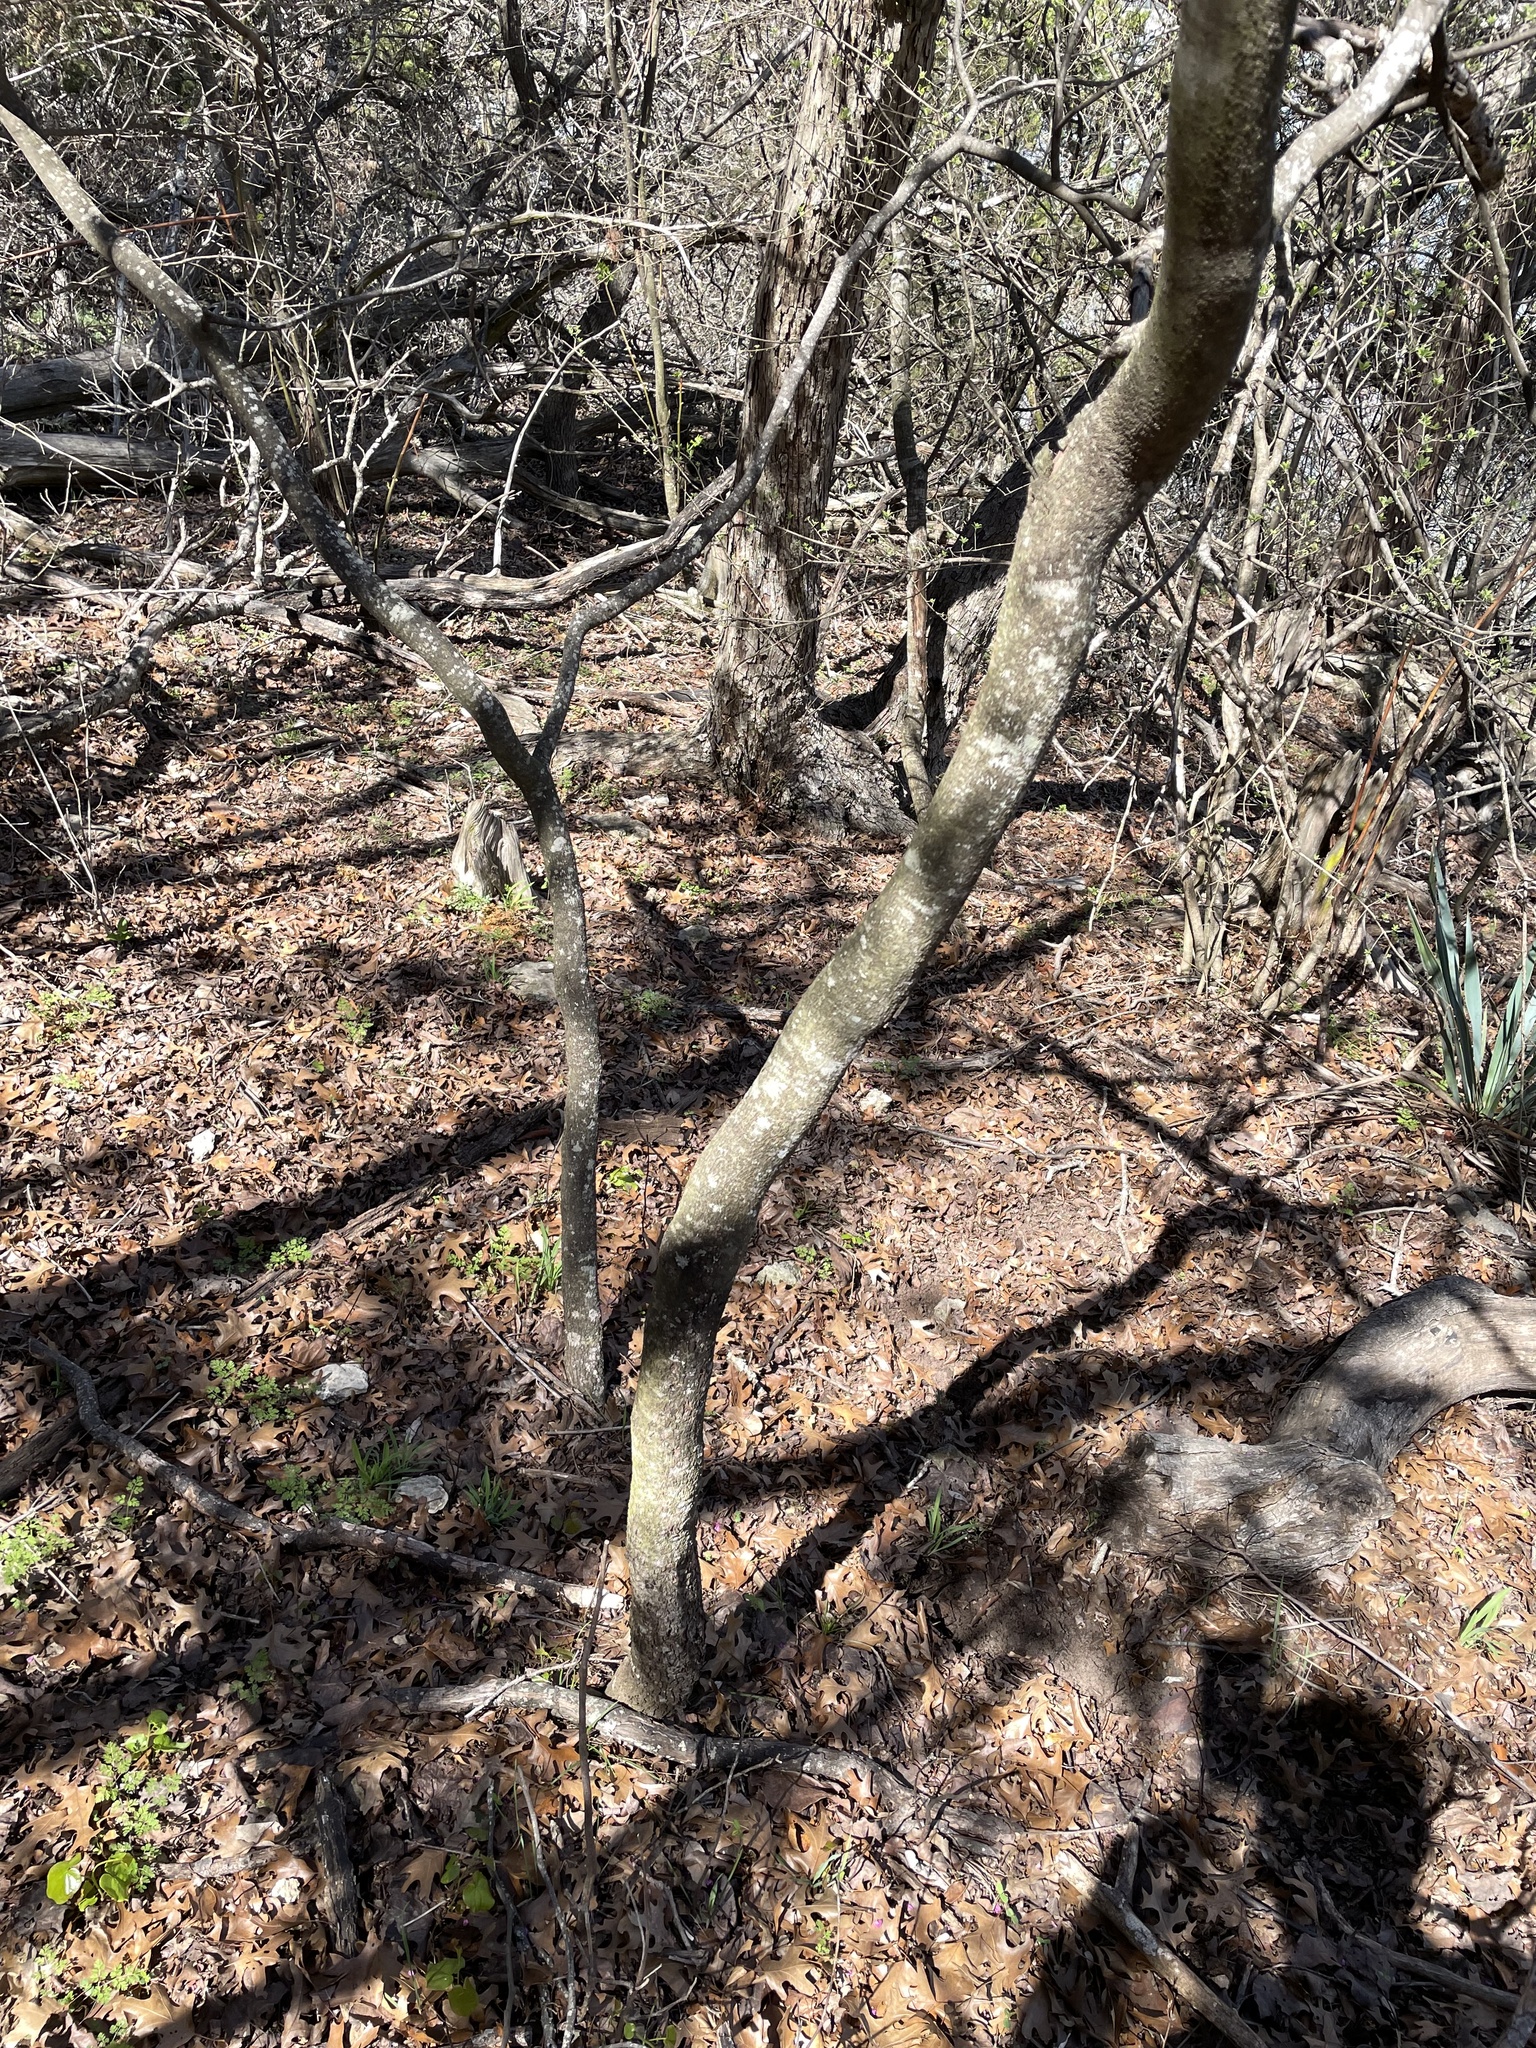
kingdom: Plantae
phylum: Tracheophyta
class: Magnoliopsida
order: Fabales
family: Fabaceae
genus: Cercis
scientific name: Cercis canadensis
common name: Eastern redbud
